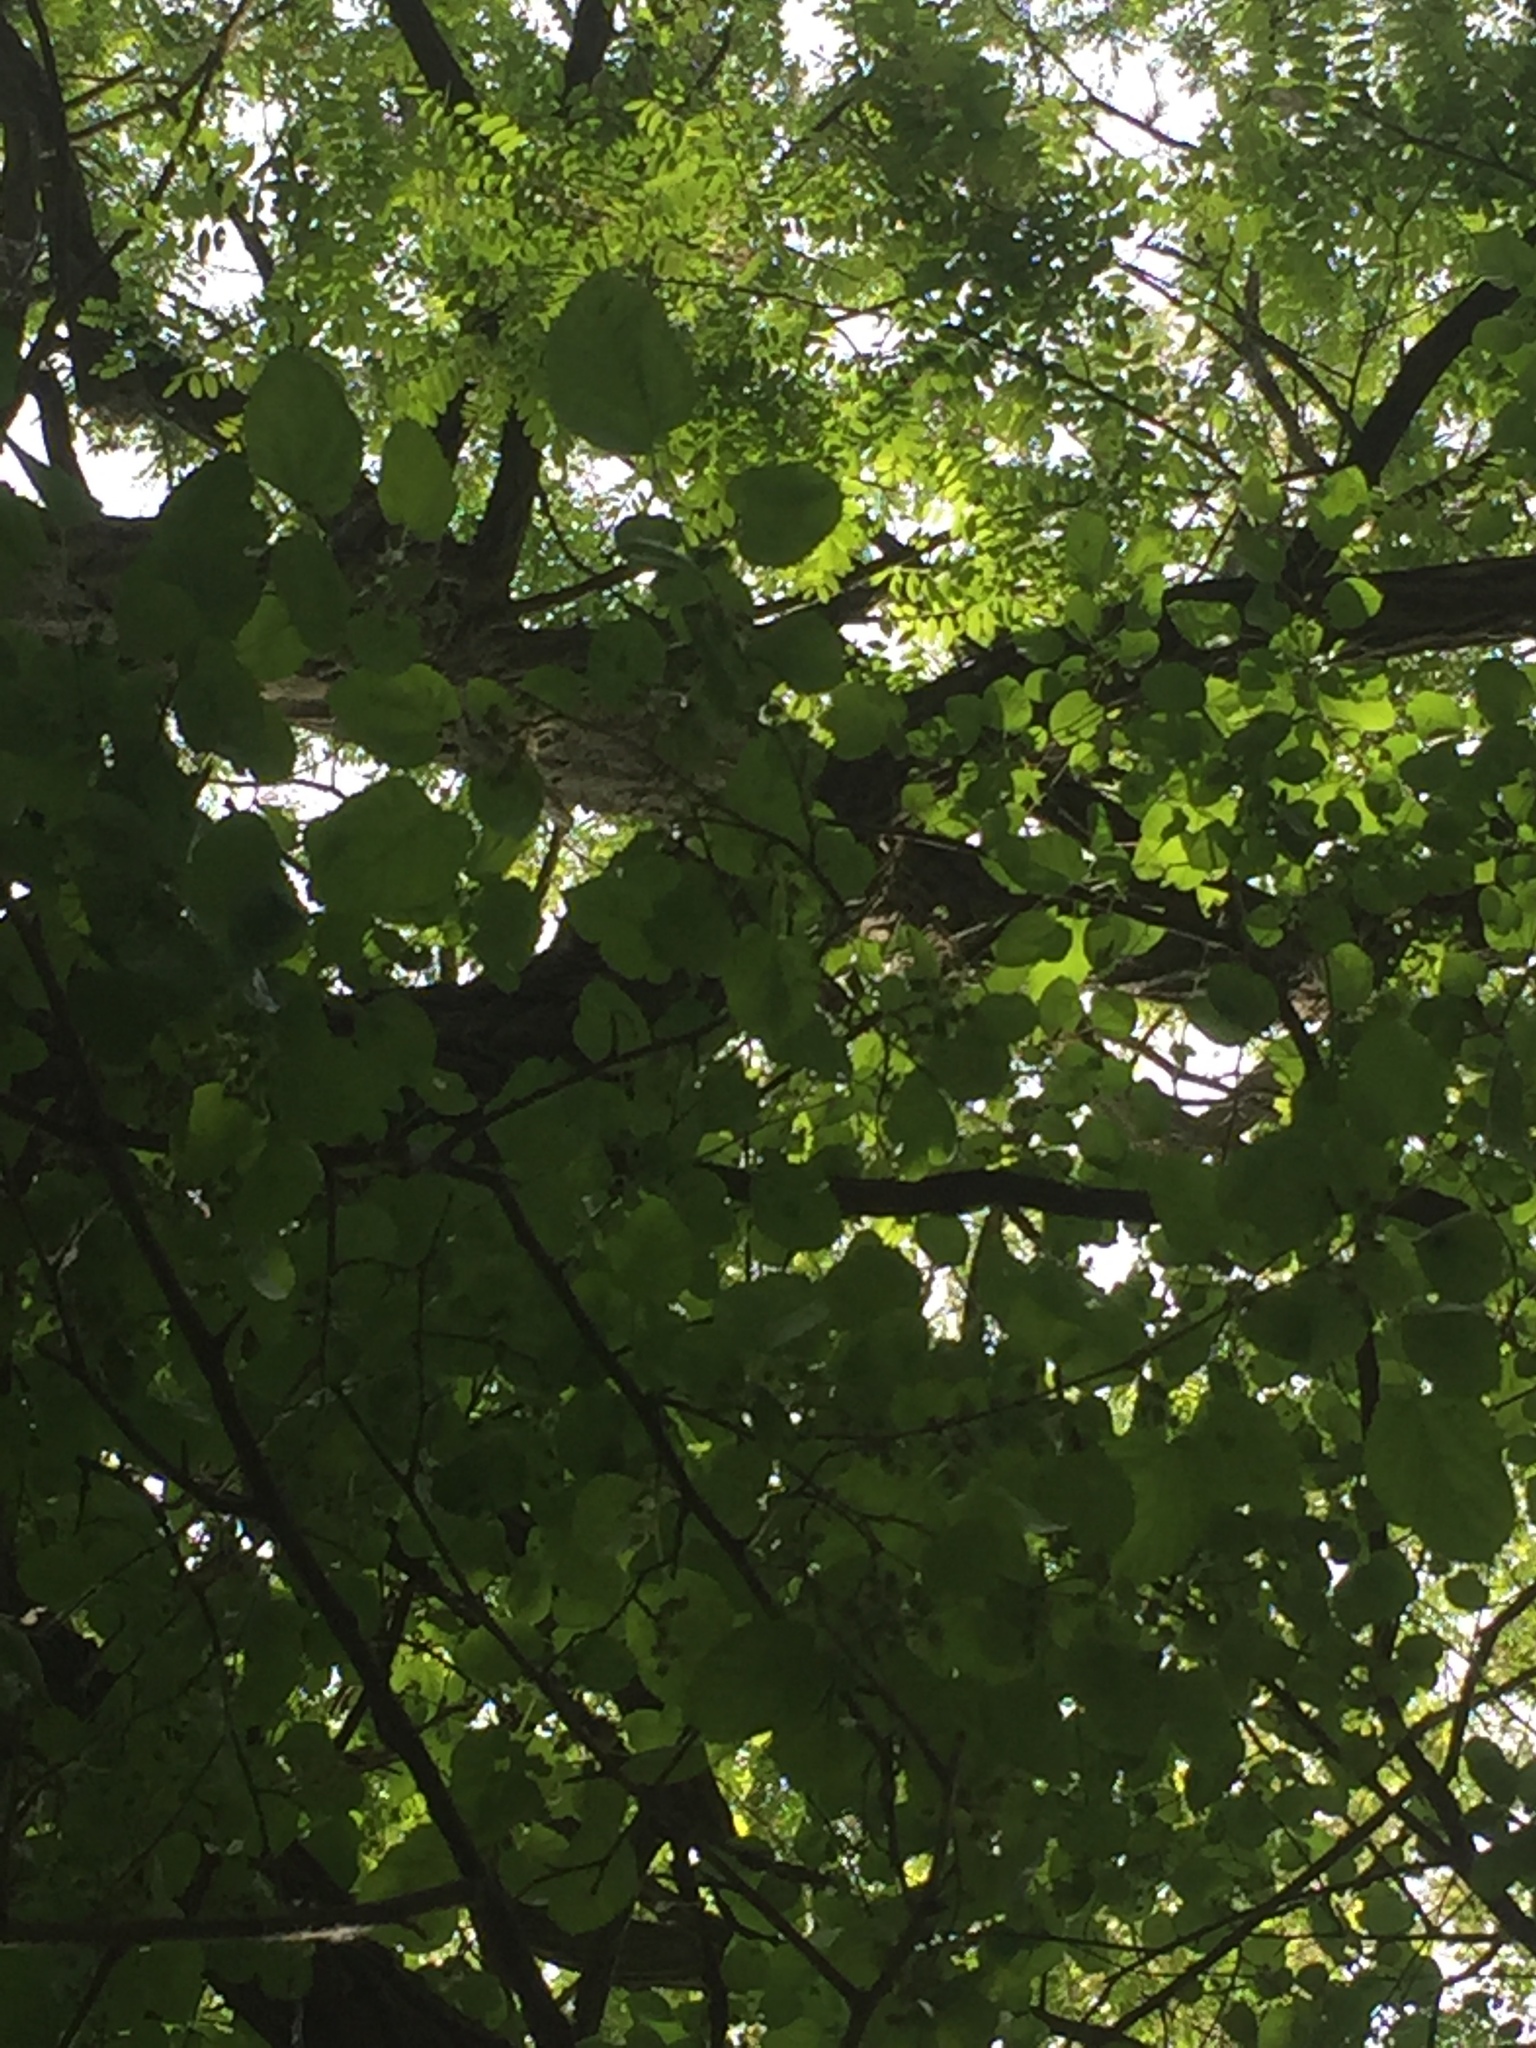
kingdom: Plantae
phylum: Tracheophyta
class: Magnoliopsida
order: Rosales
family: Moraceae
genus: Morus
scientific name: Morus alba
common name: White mulberry
